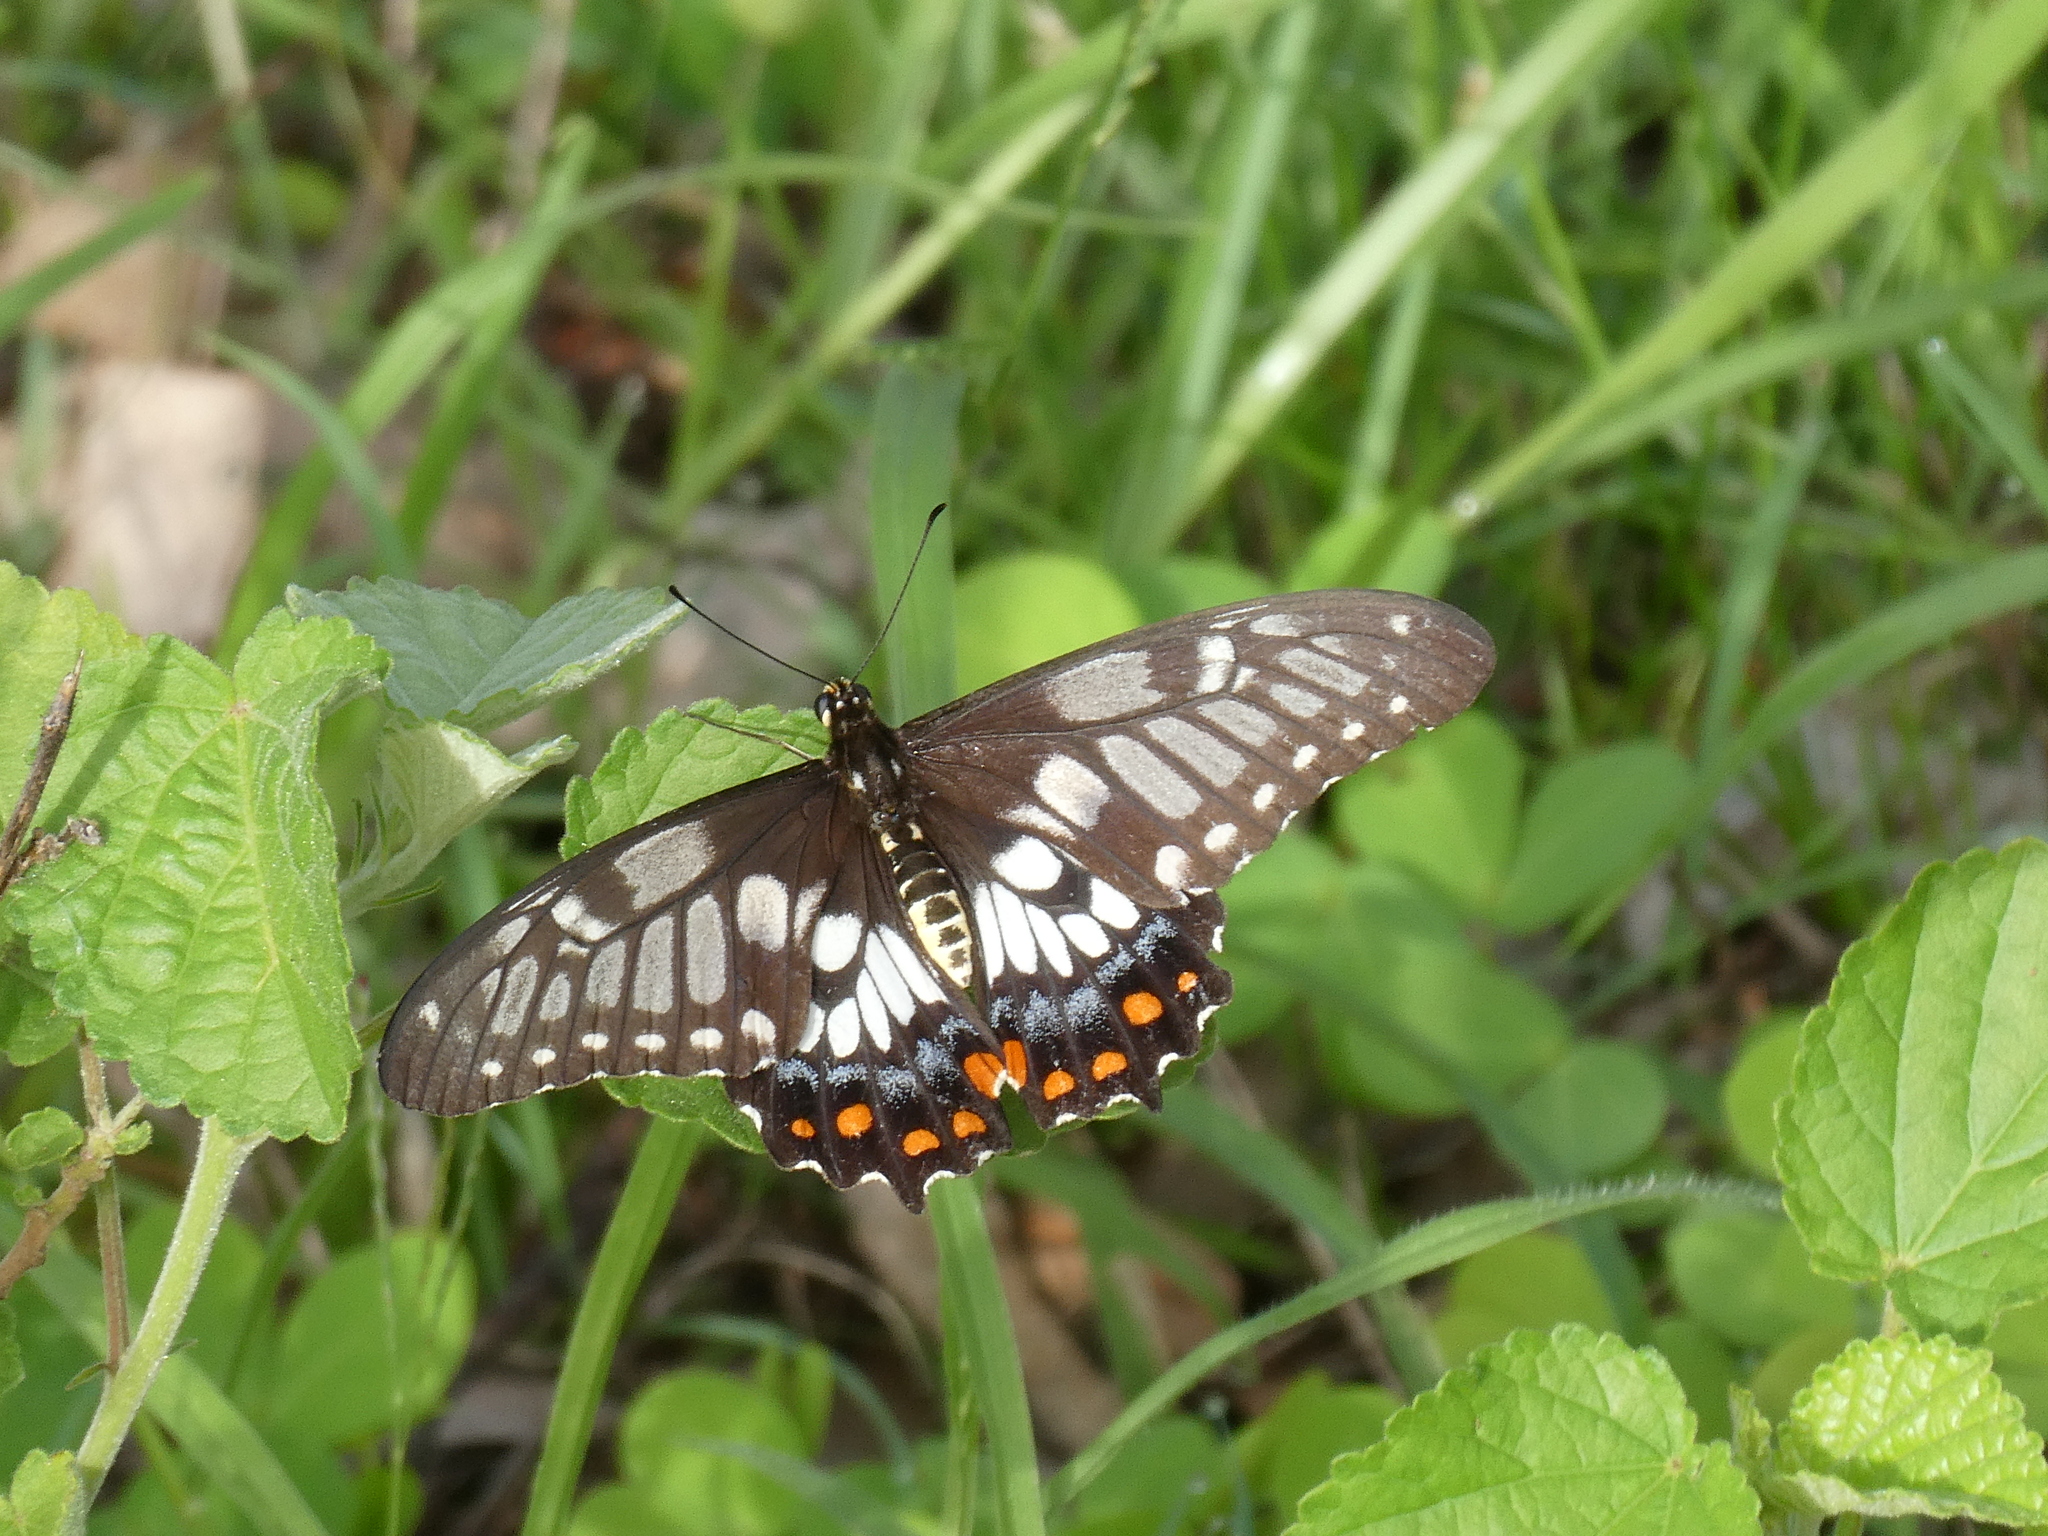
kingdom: Animalia
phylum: Arthropoda
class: Insecta
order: Lepidoptera
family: Papilionidae
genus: Papilio
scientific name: Papilio anactus
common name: Dingy swallowtail
